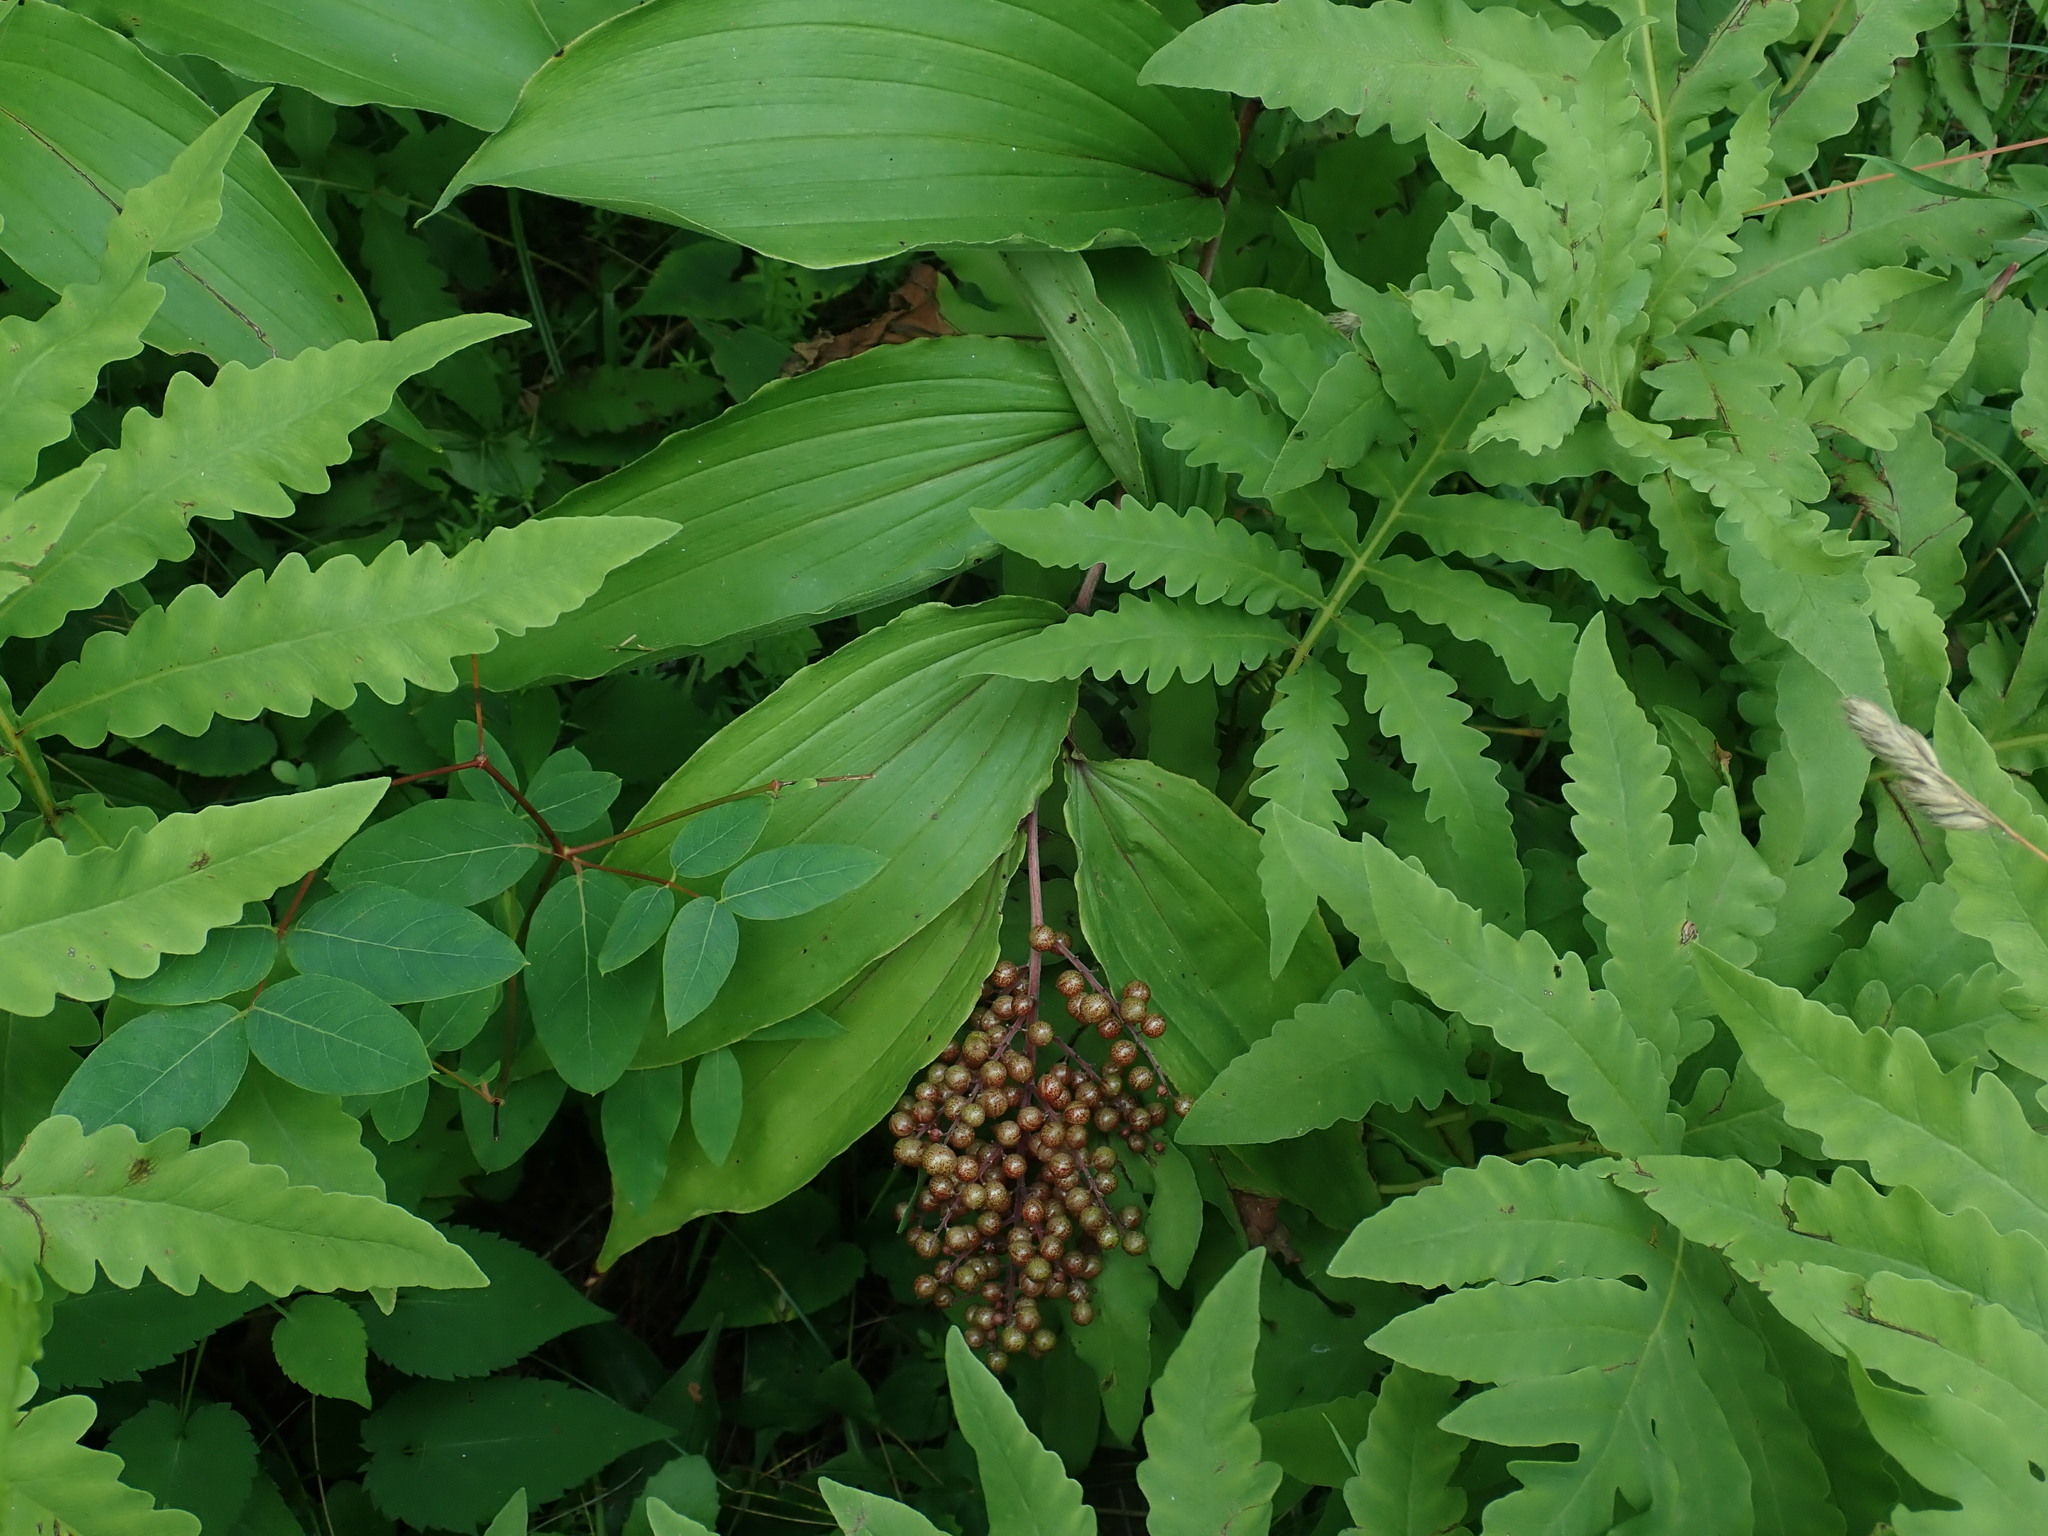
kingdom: Plantae
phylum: Tracheophyta
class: Liliopsida
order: Asparagales
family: Asparagaceae
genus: Maianthemum
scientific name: Maianthemum racemosum
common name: False spikenard
